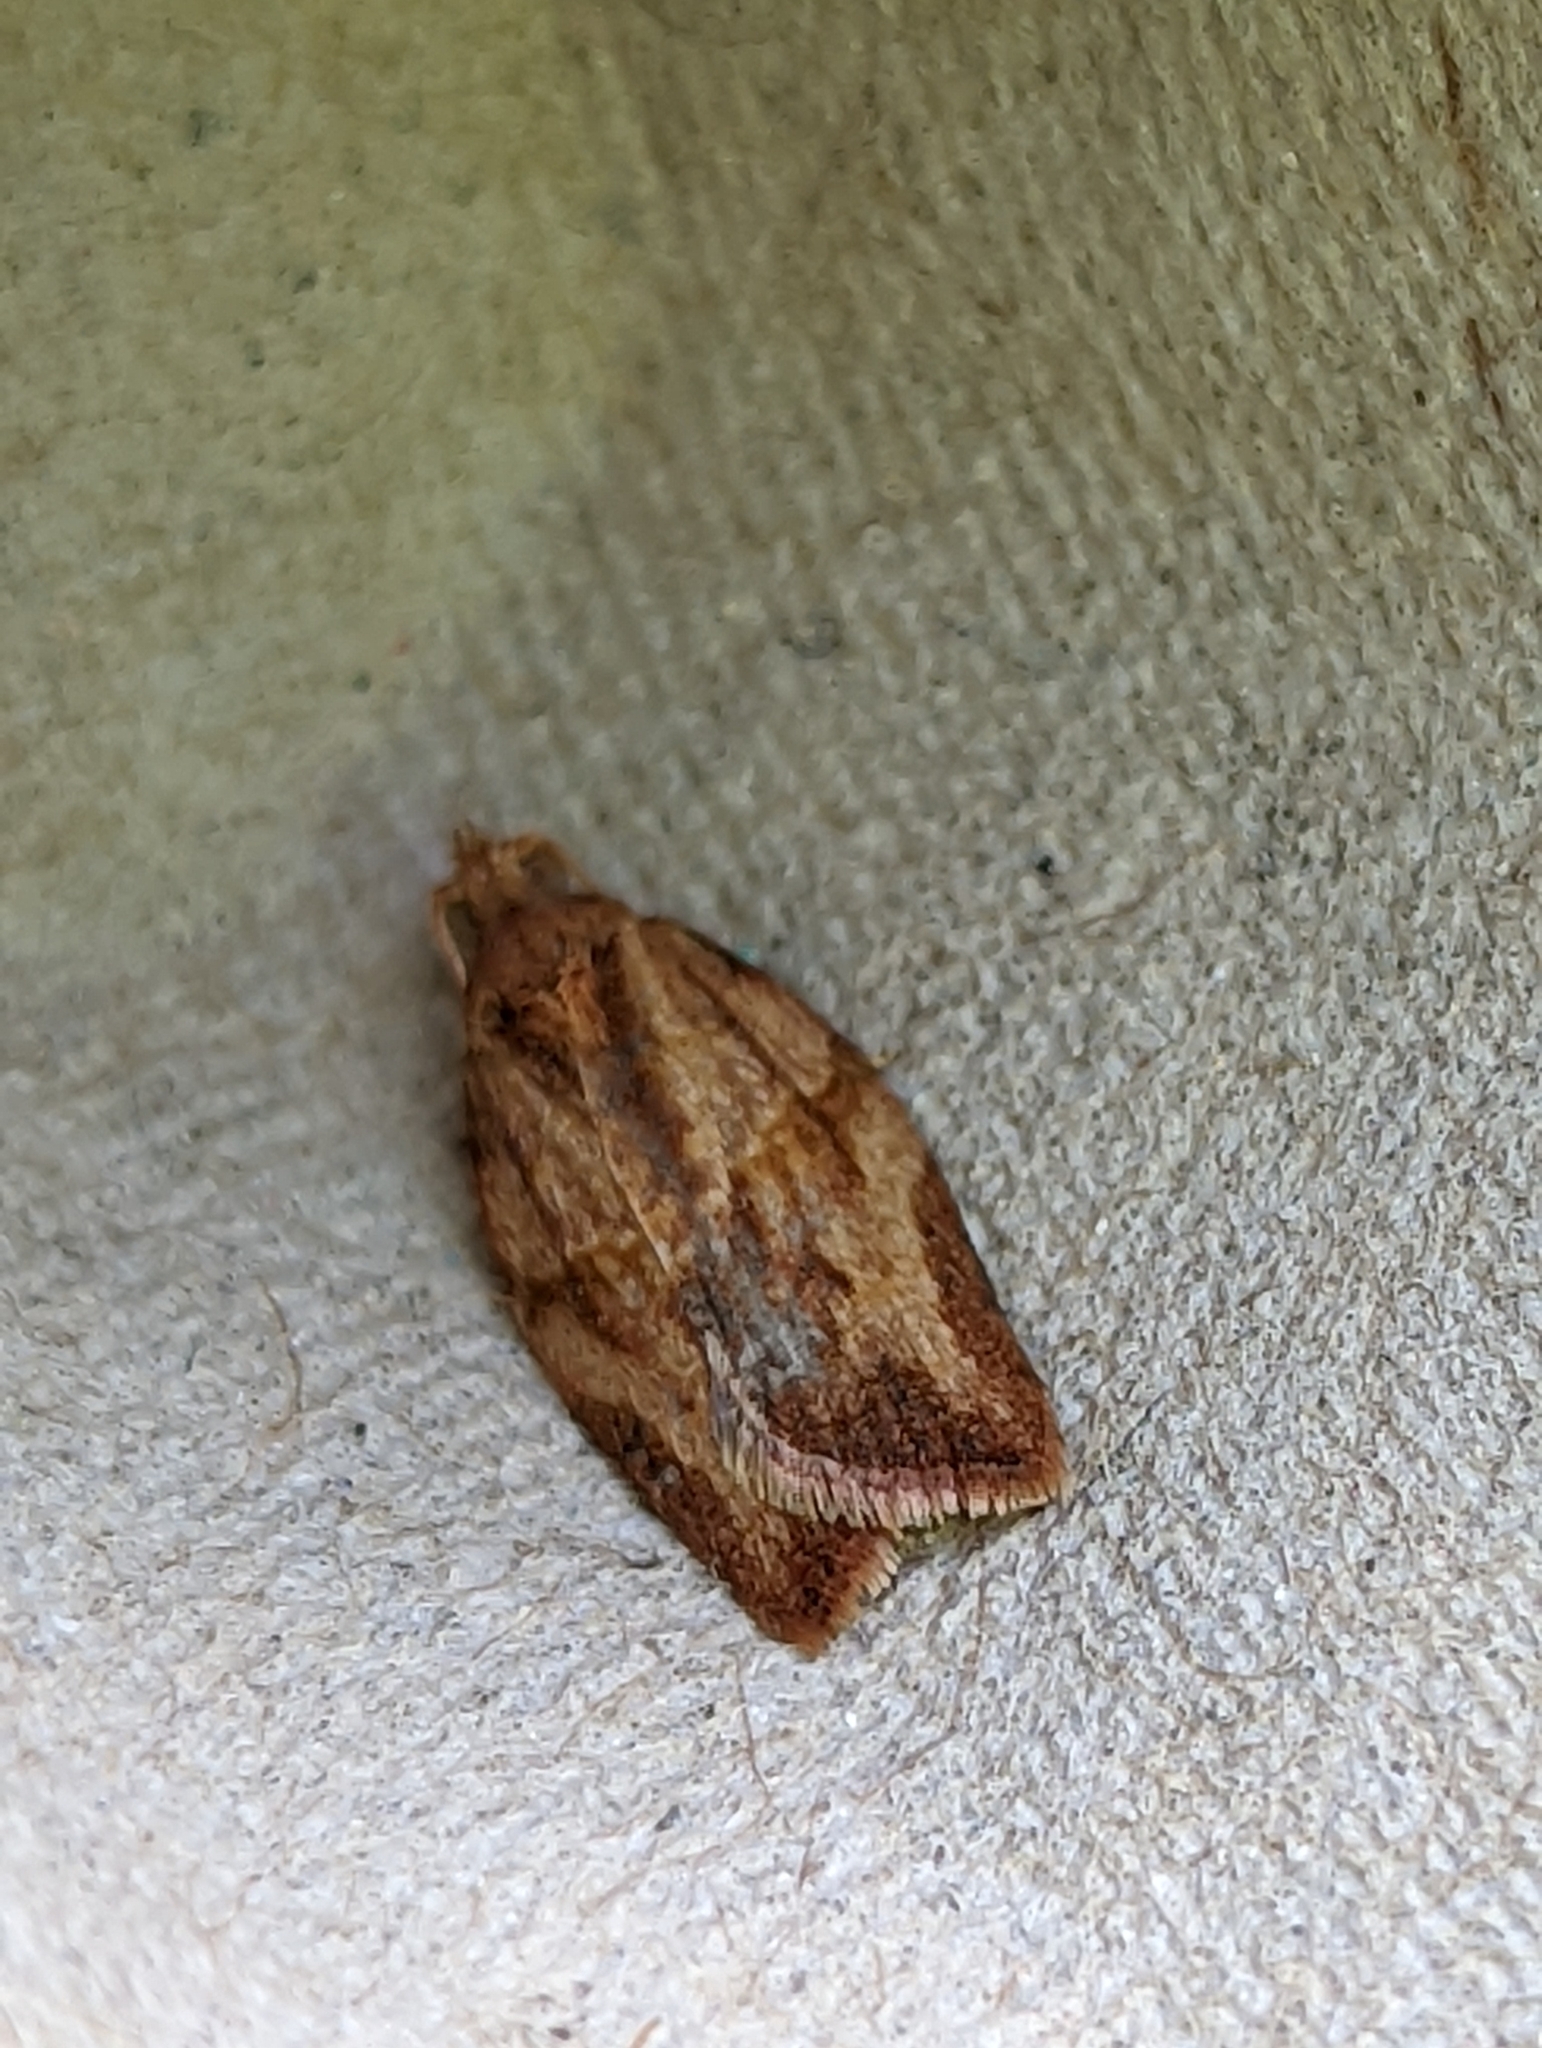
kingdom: Animalia
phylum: Arthropoda
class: Insecta
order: Lepidoptera
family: Tortricidae
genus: Epiphyas
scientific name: Epiphyas postvittana
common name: Light brown apple moth
